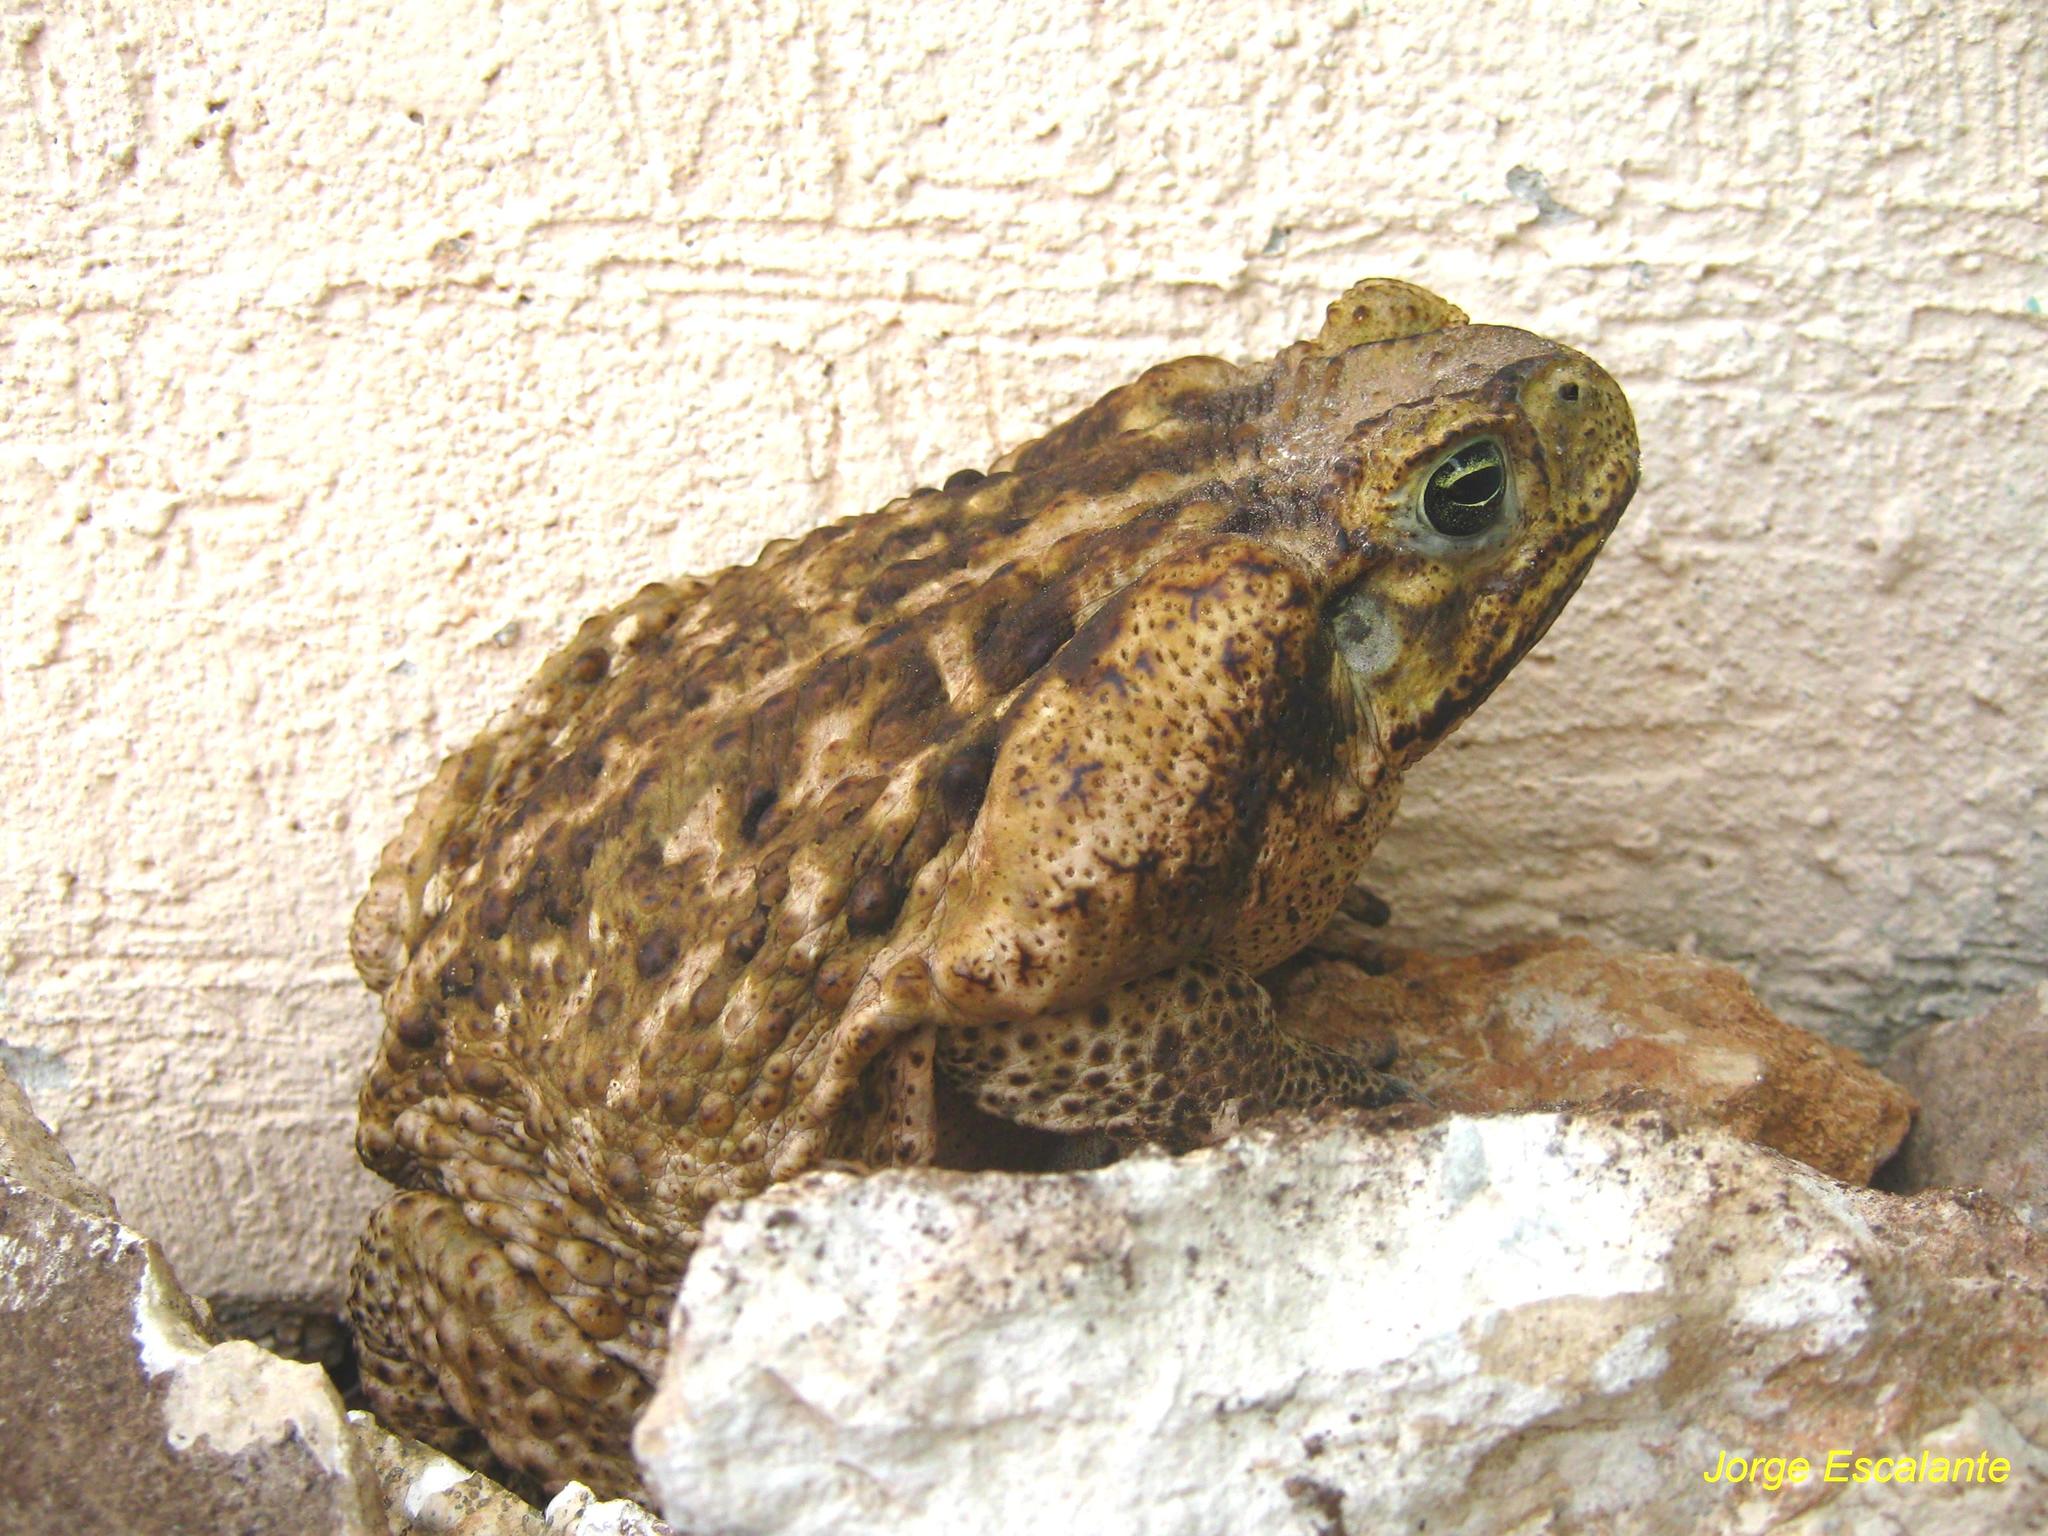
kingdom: Animalia
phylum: Chordata
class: Amphibia
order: Anura
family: Bufonidae
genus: Rhinella
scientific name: Rhinella horribilis
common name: Mesoamerican cane toad
